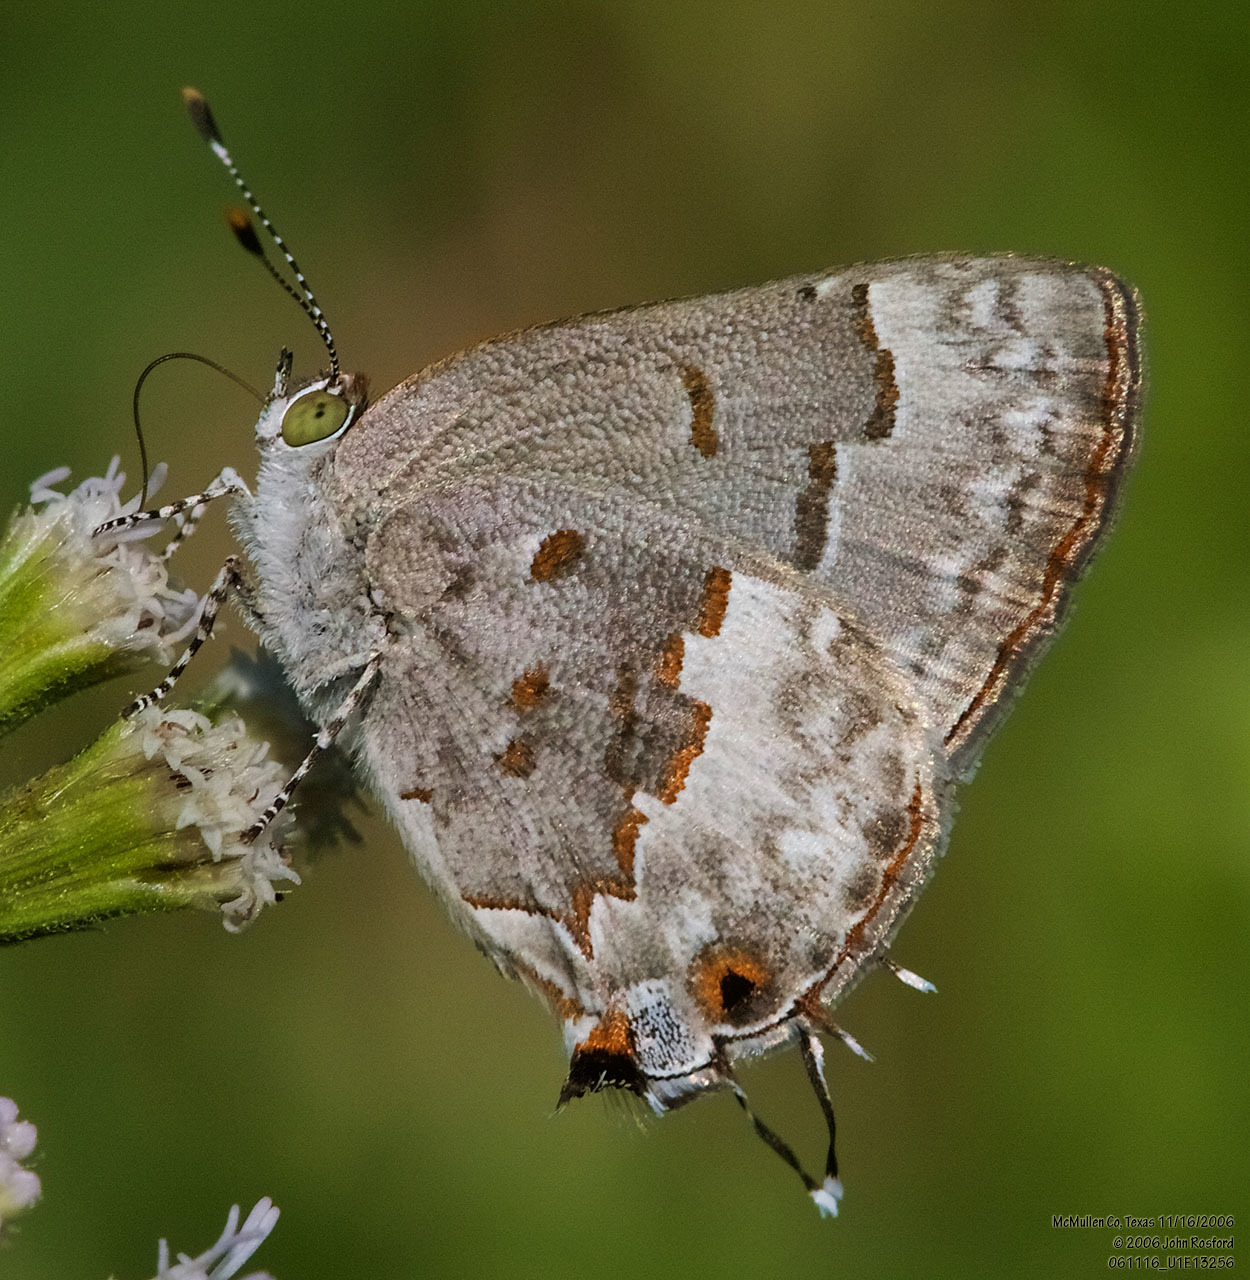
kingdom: Animalia
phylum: Arthropoda
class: Insecta
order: Lepidoptera
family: Lycaenidae
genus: Ministrymon
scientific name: Ministrymon clytie
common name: Clytie ministreak
